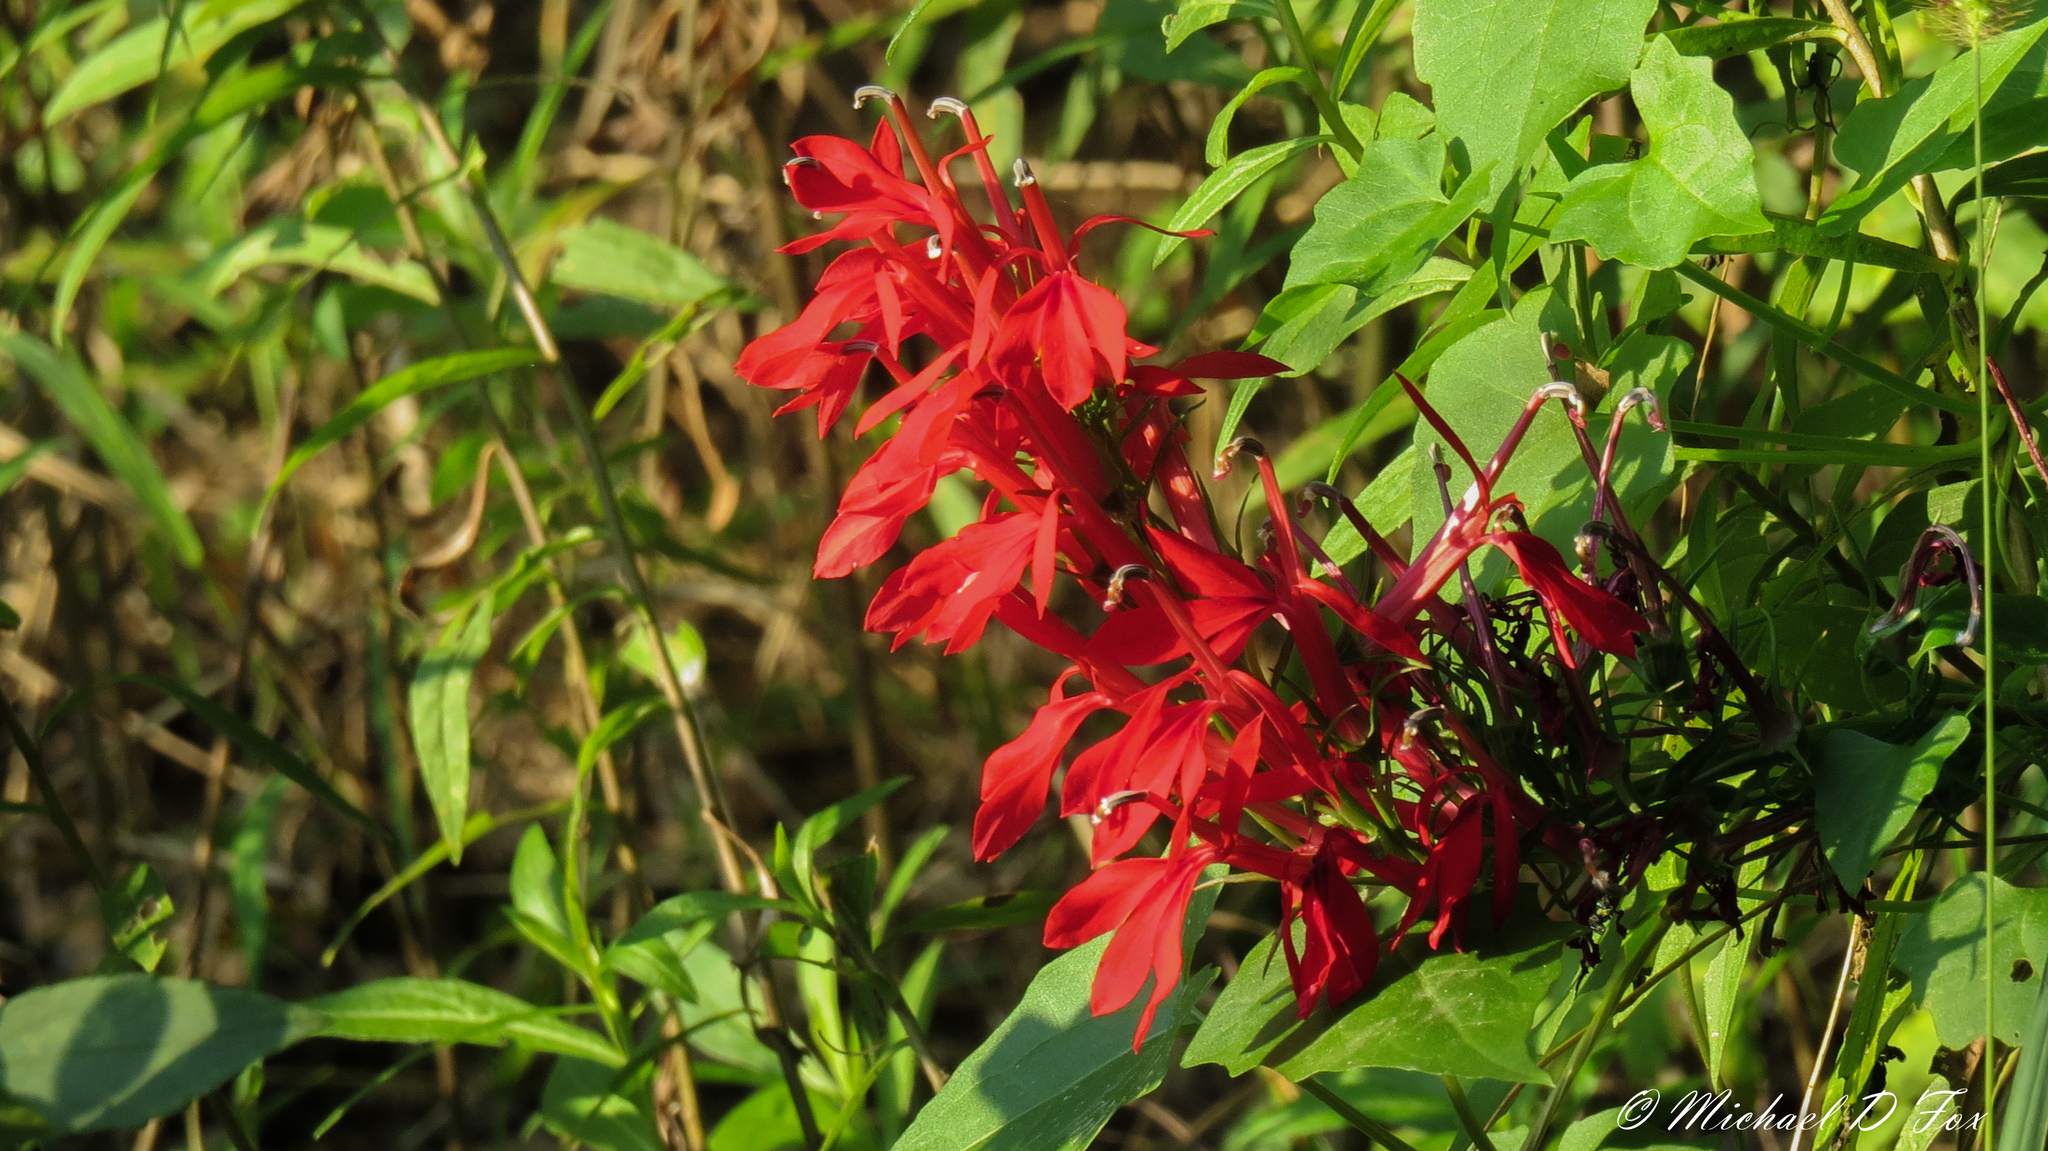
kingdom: Plantae
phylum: Tracheophyta
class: Magnoliopsida
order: Asterales
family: Campanulaceae
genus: Lobelia
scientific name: Lobelia cardinalis
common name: Cardinal flower
